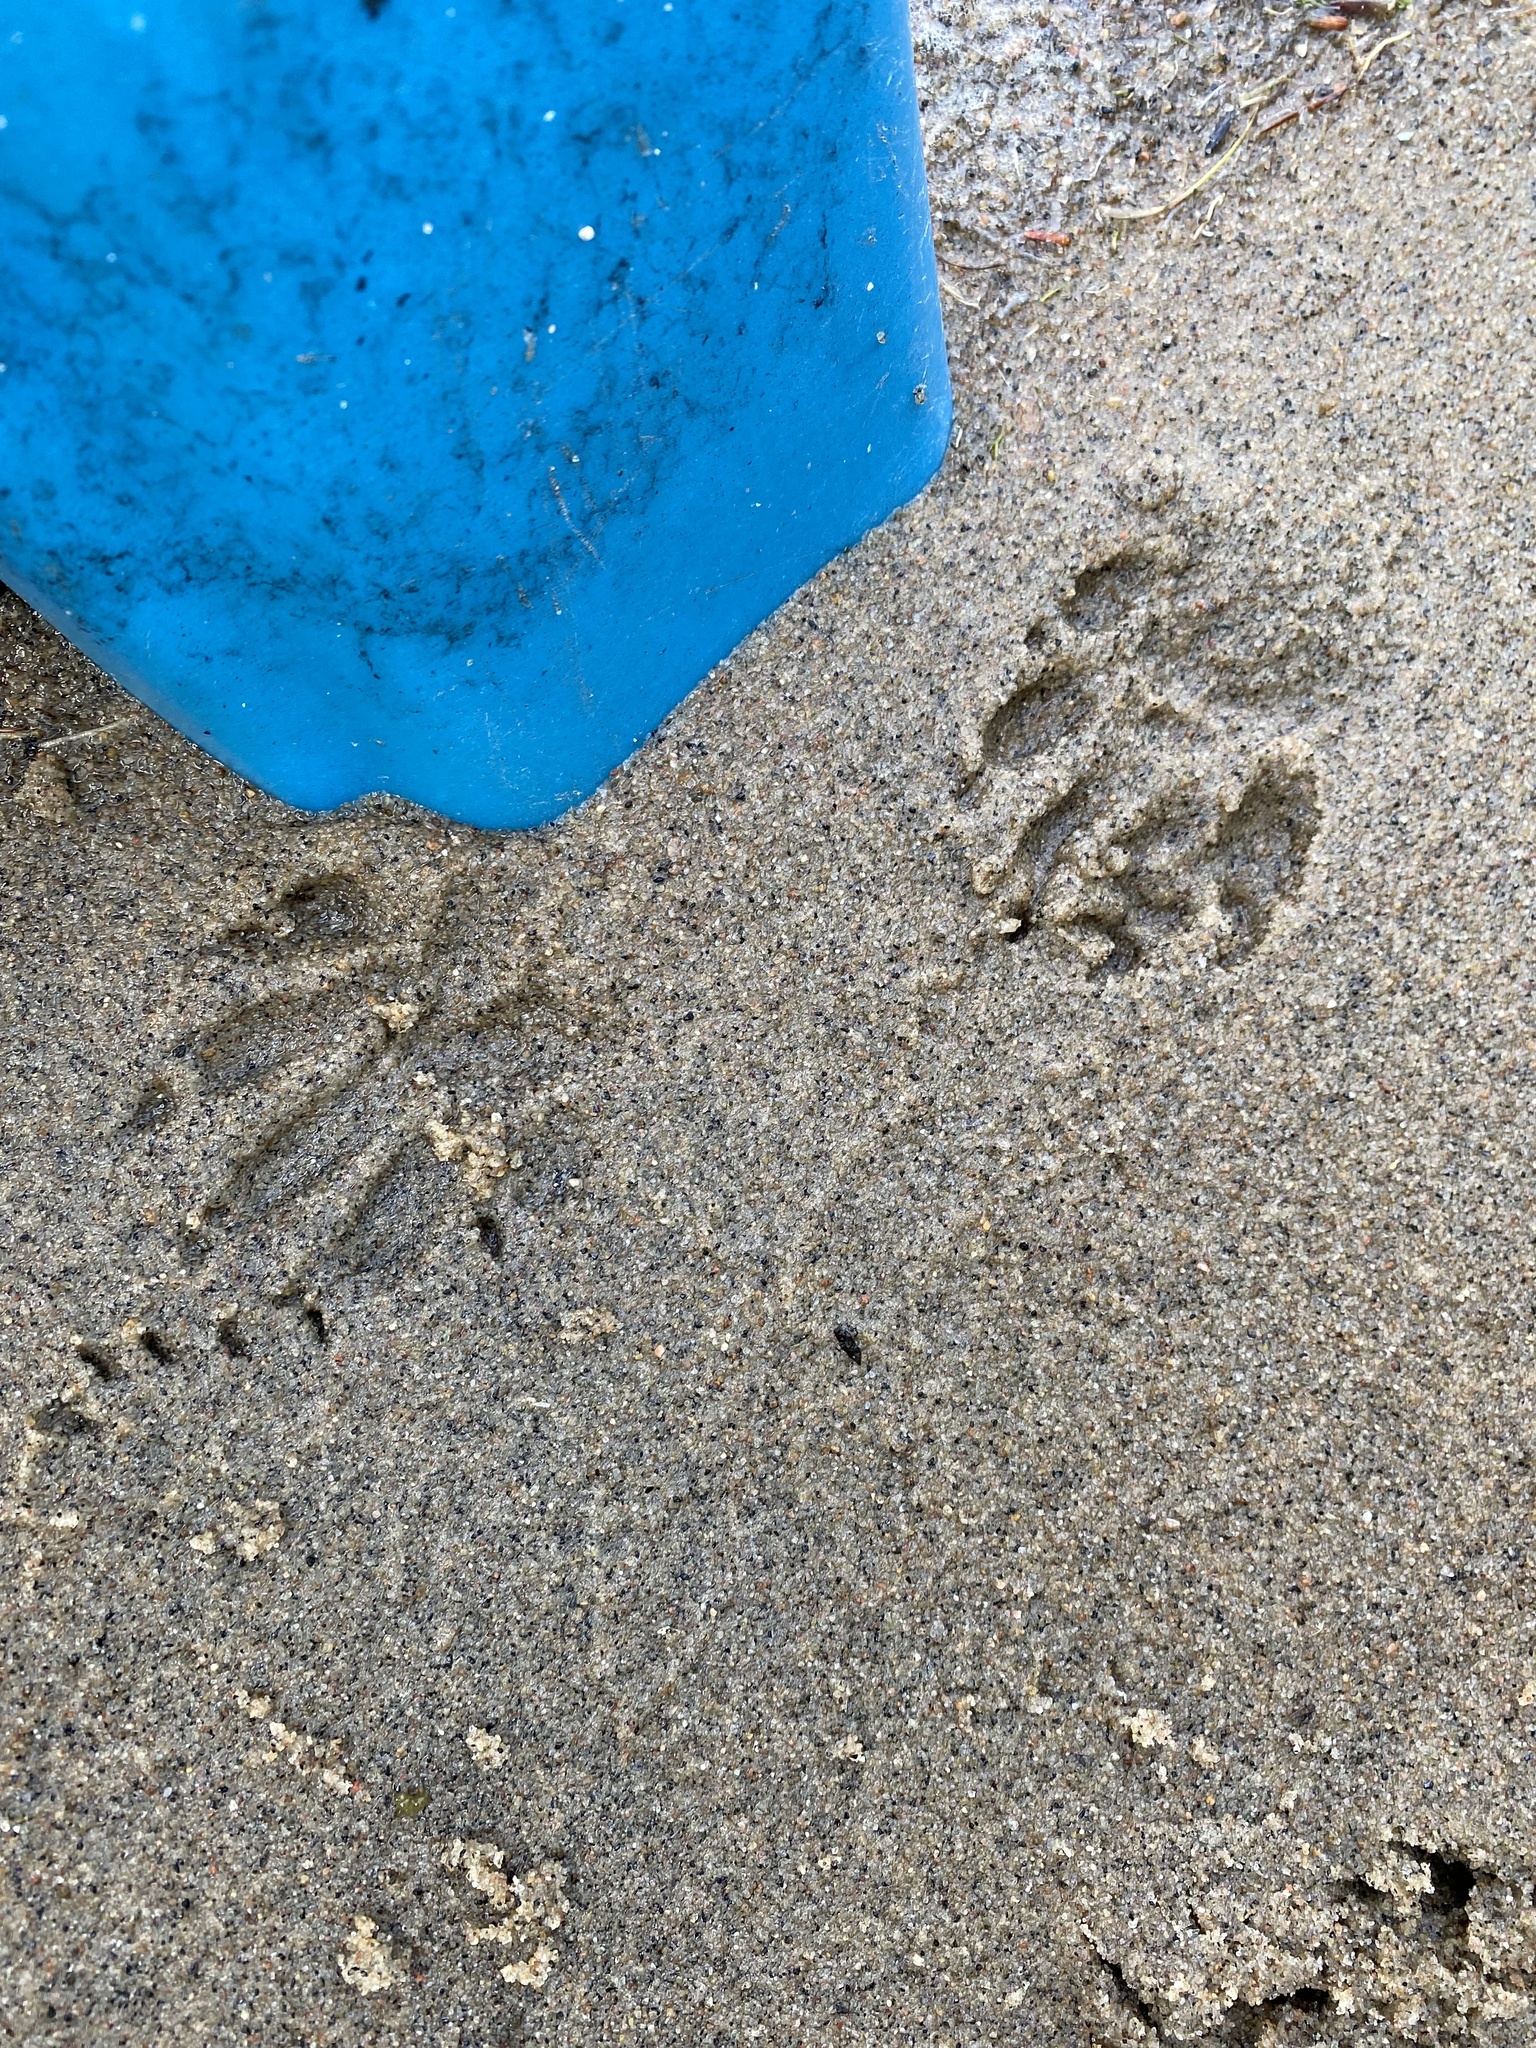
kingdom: Animalia
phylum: Chordata
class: Mammalia
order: Carnivora
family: Procyonidae
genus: Procyon
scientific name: Procyon lotor
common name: Raccoon
